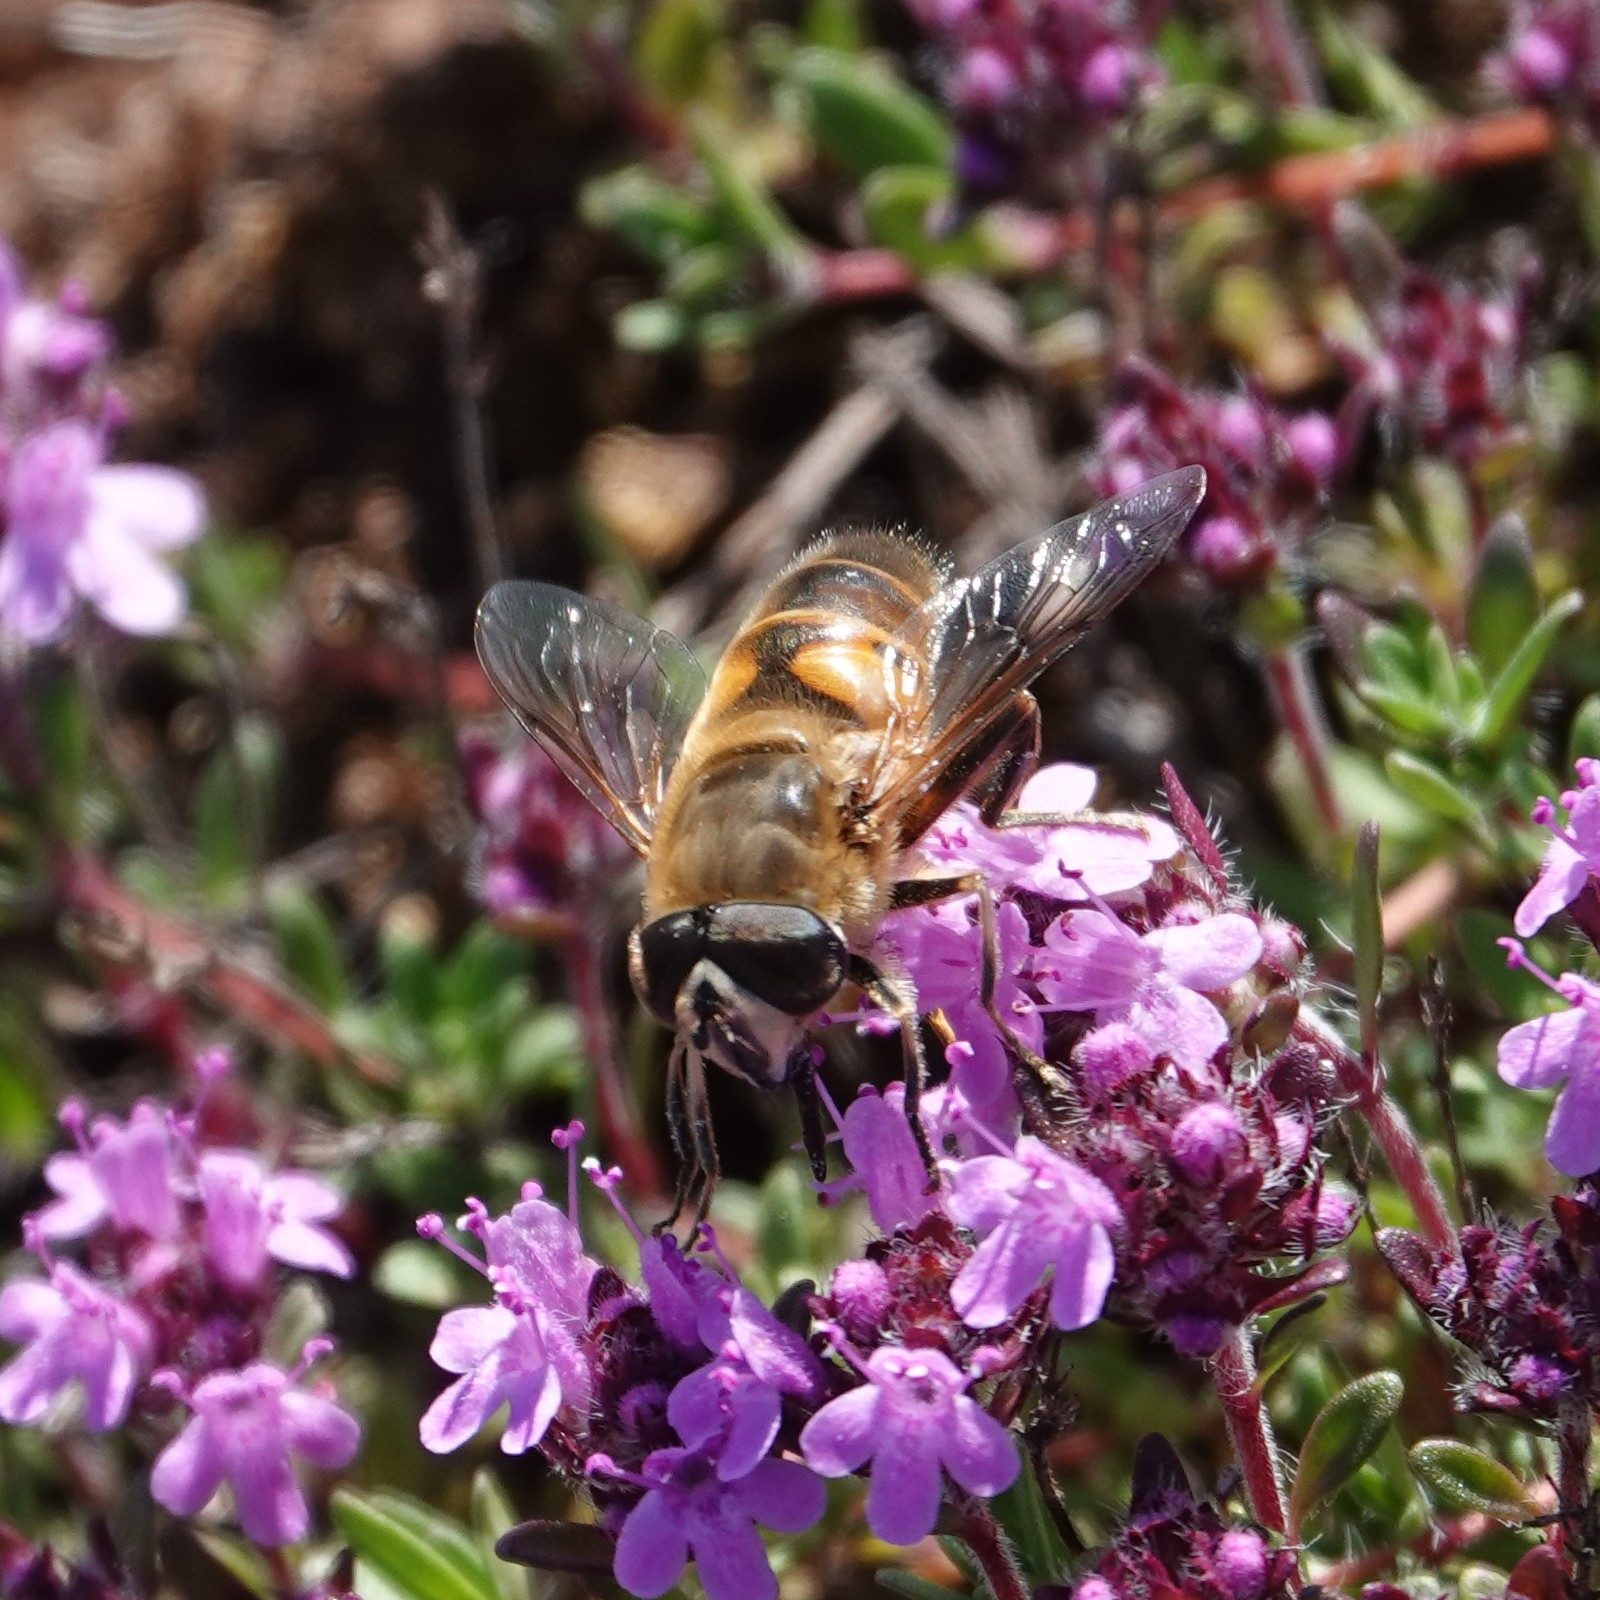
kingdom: Animalia
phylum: Arthropoda
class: Insecta
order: Diptera
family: Syrphidae
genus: Eristalis
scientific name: Eristalis tenax
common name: Drone fly
